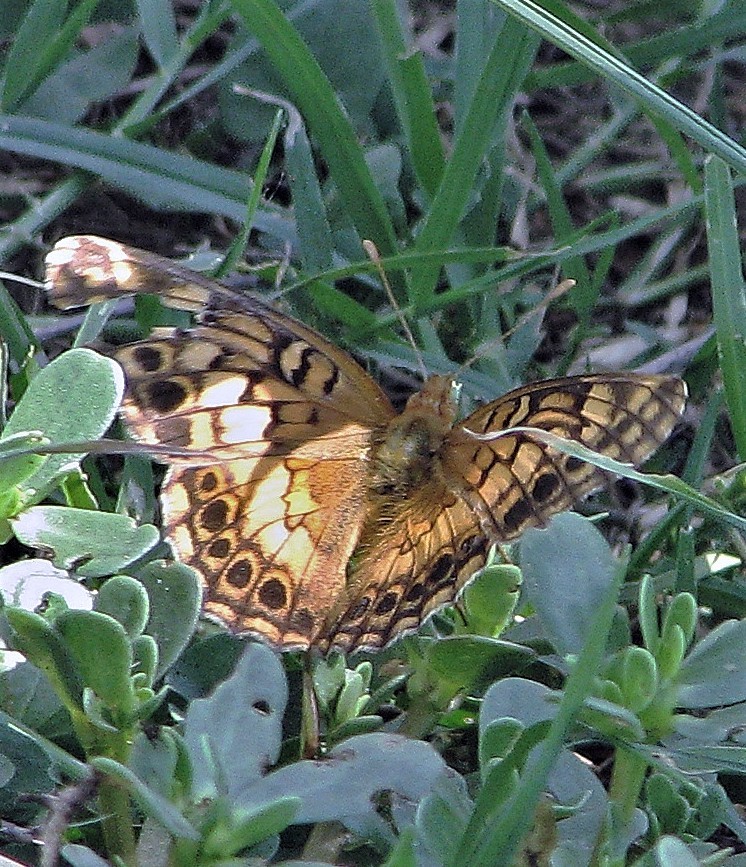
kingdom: Animalia
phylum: Arthropoda
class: Insecta
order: Lepidoptera
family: Nymphalidae
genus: Euptoieta
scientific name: Euptoieta hortensia
